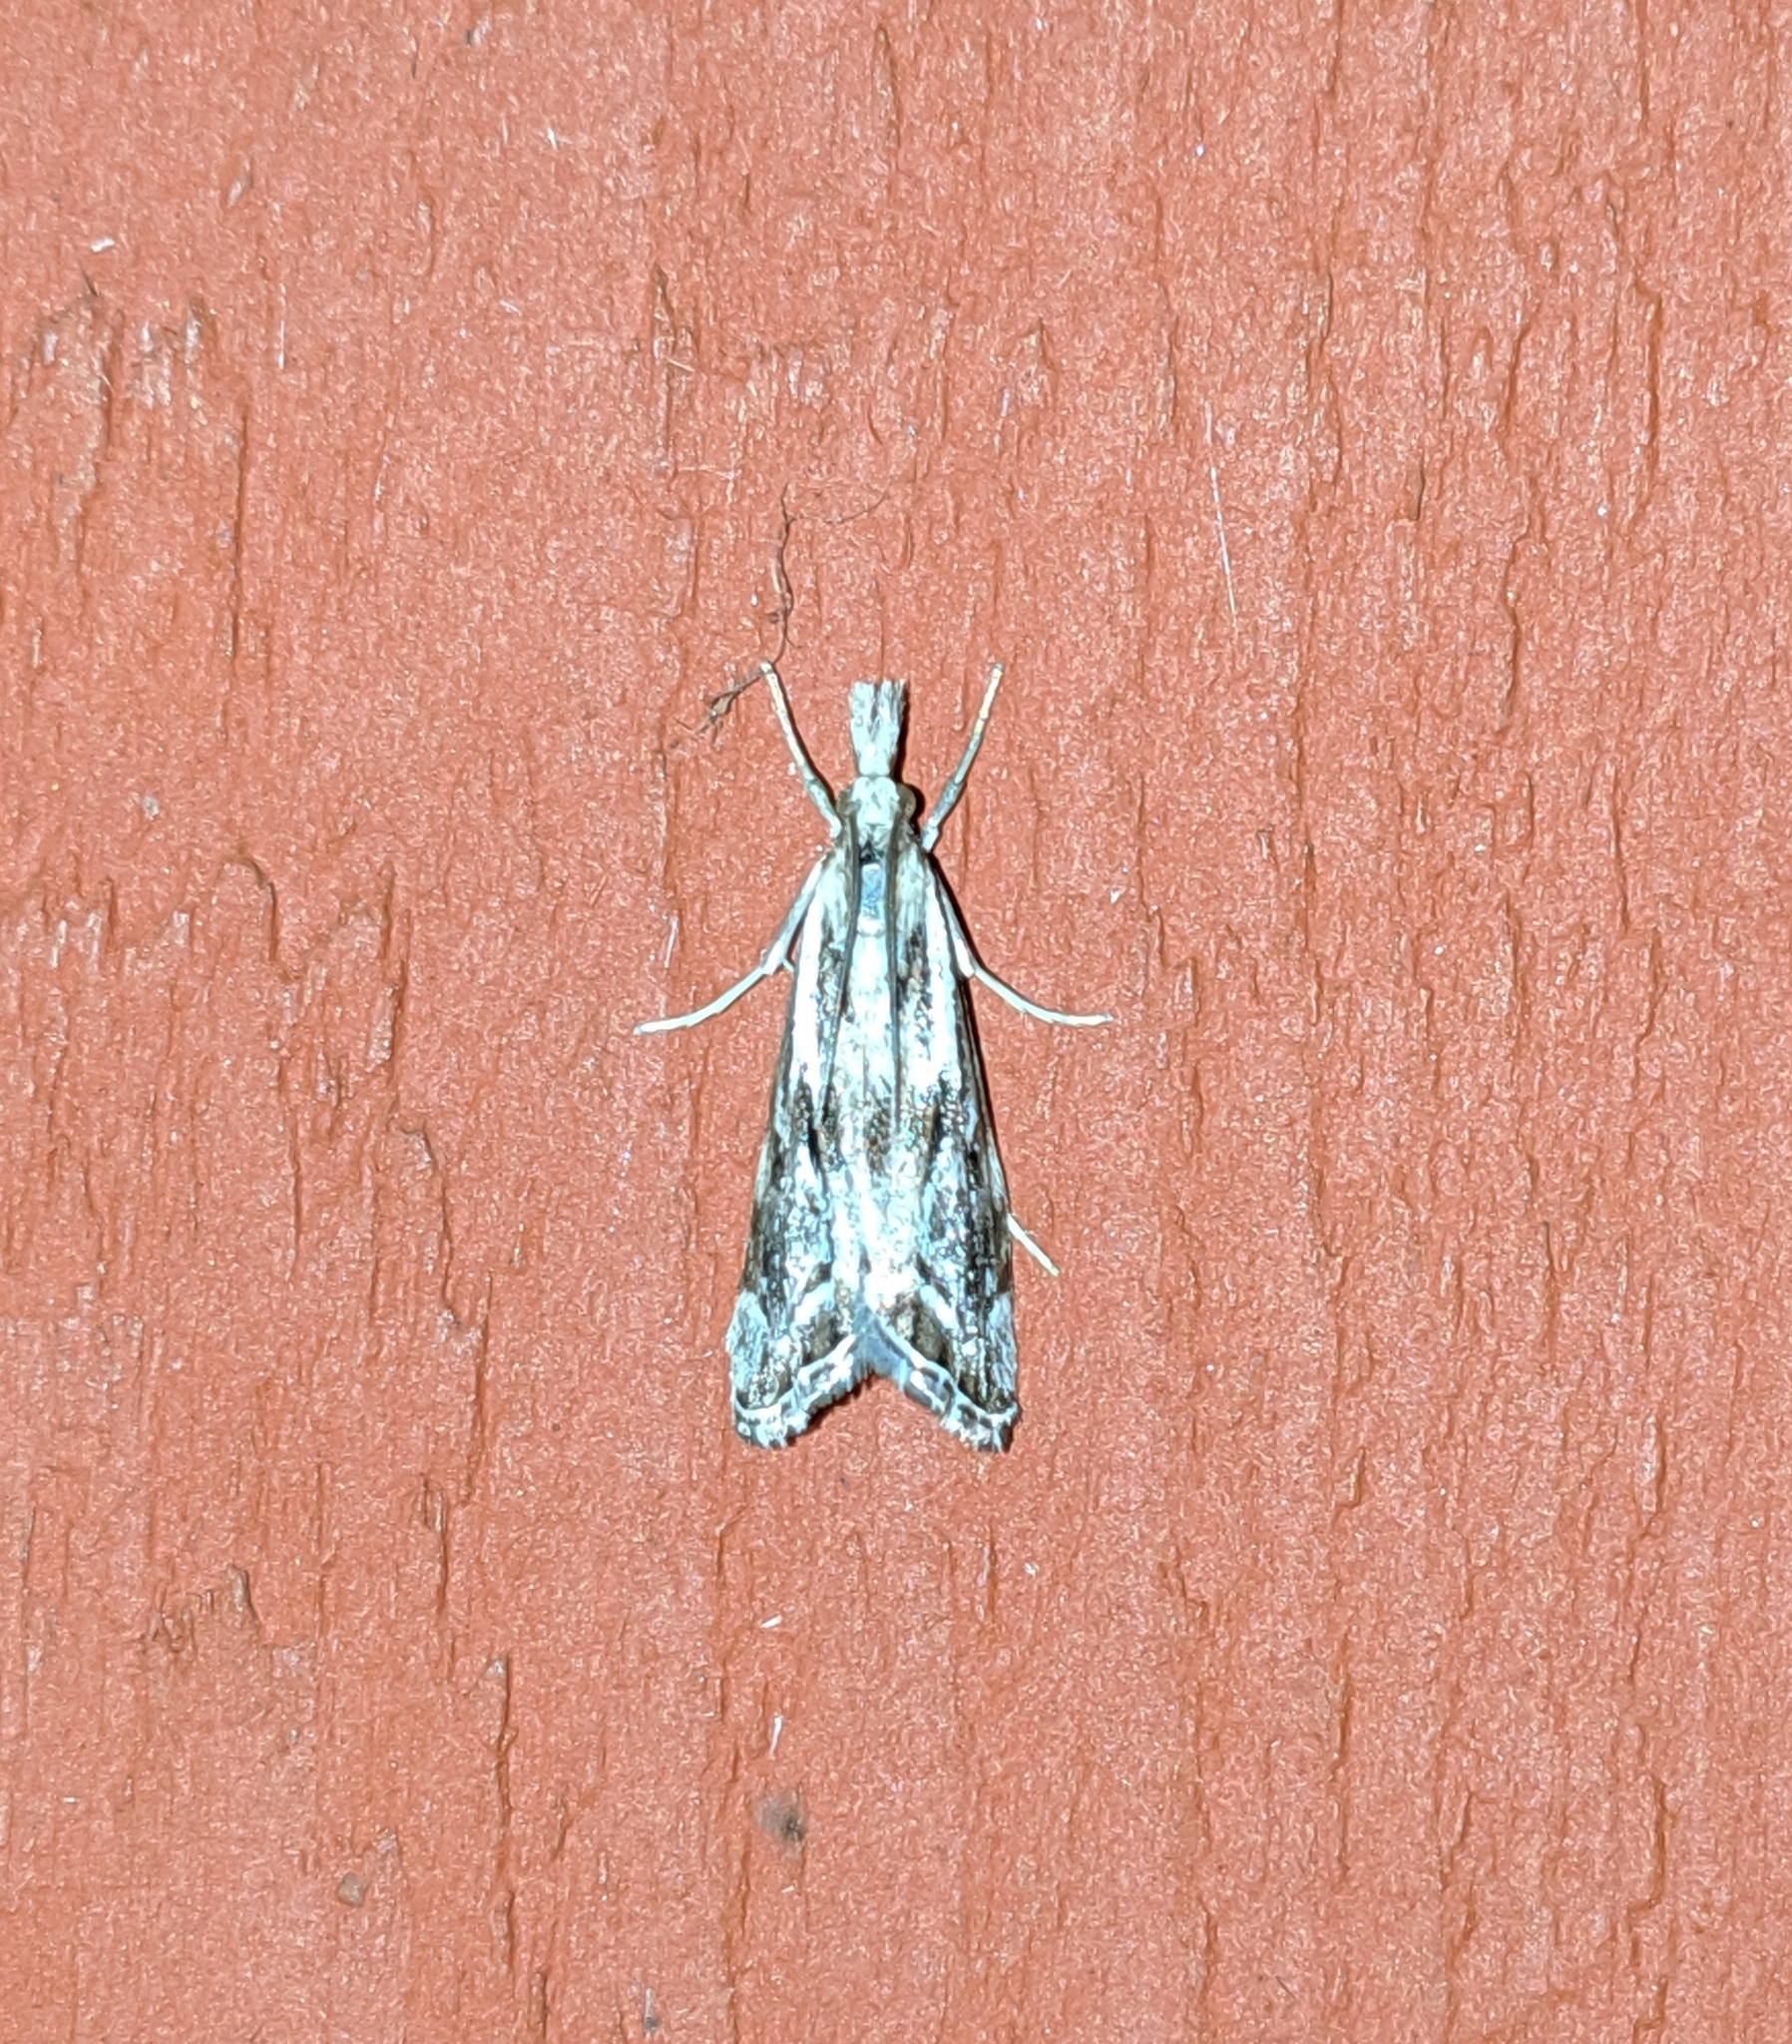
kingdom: Animalia
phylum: Arthropoda
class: Insecta
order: Lepidoptera
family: Crambidae
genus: Catoptria
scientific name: Catoptria oregonicus
